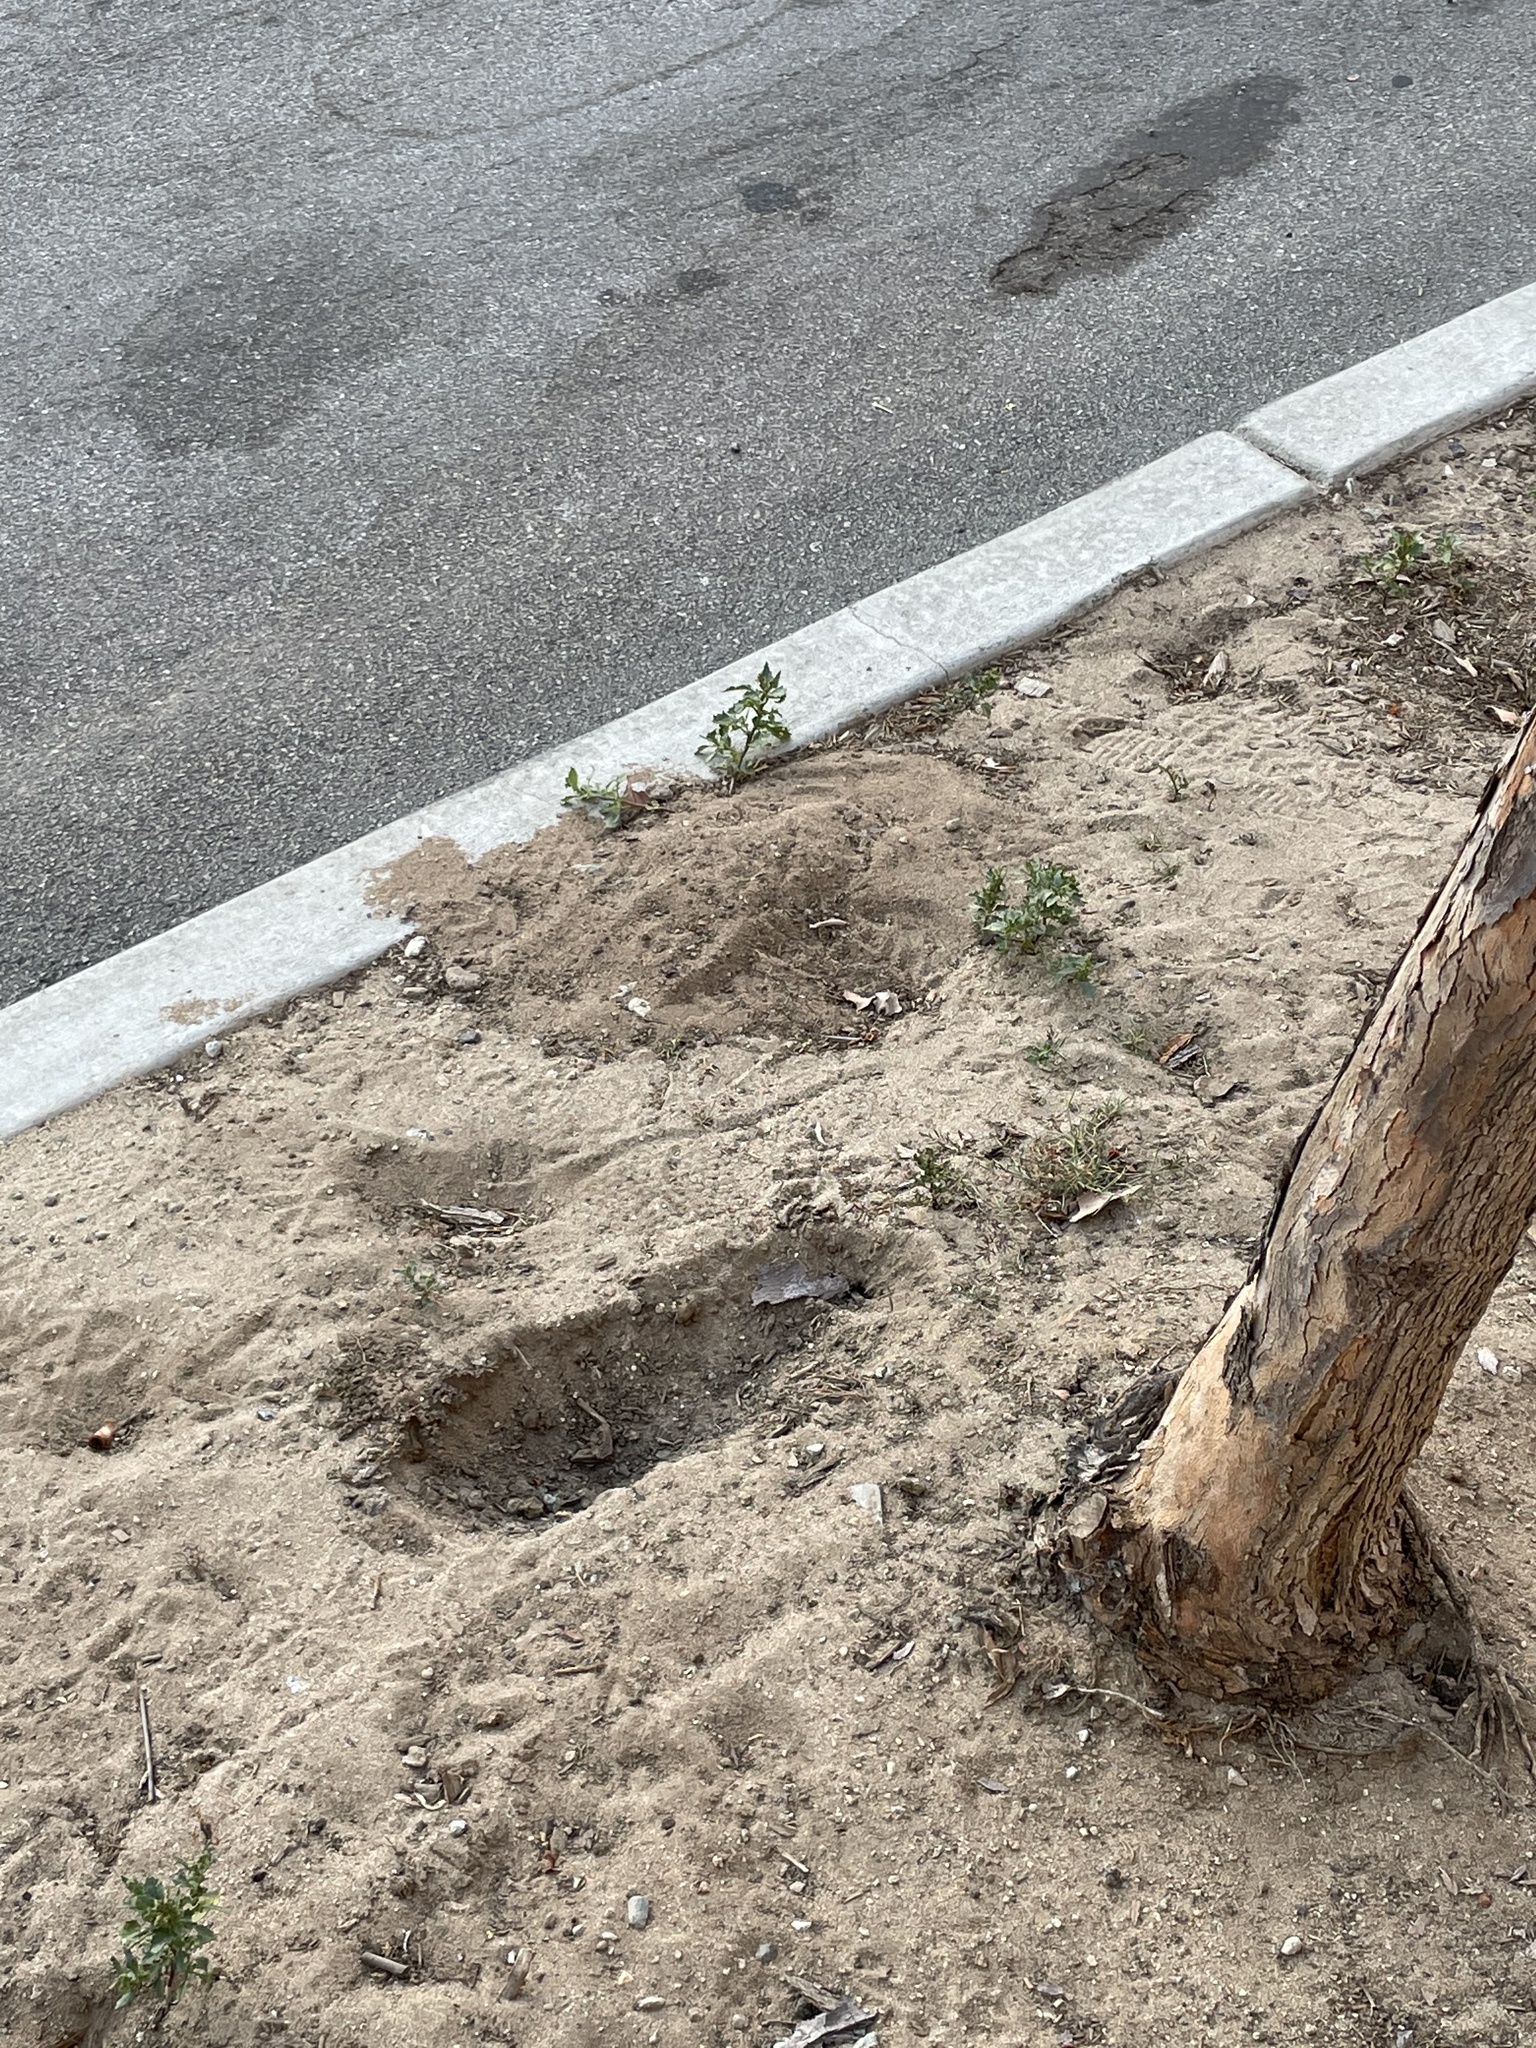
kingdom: Animalia
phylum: Chordata
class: Mammalia
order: Rodentia
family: Geomyidae
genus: Thomomys
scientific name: Thomomys bottae
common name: Botta's pocket gopher
